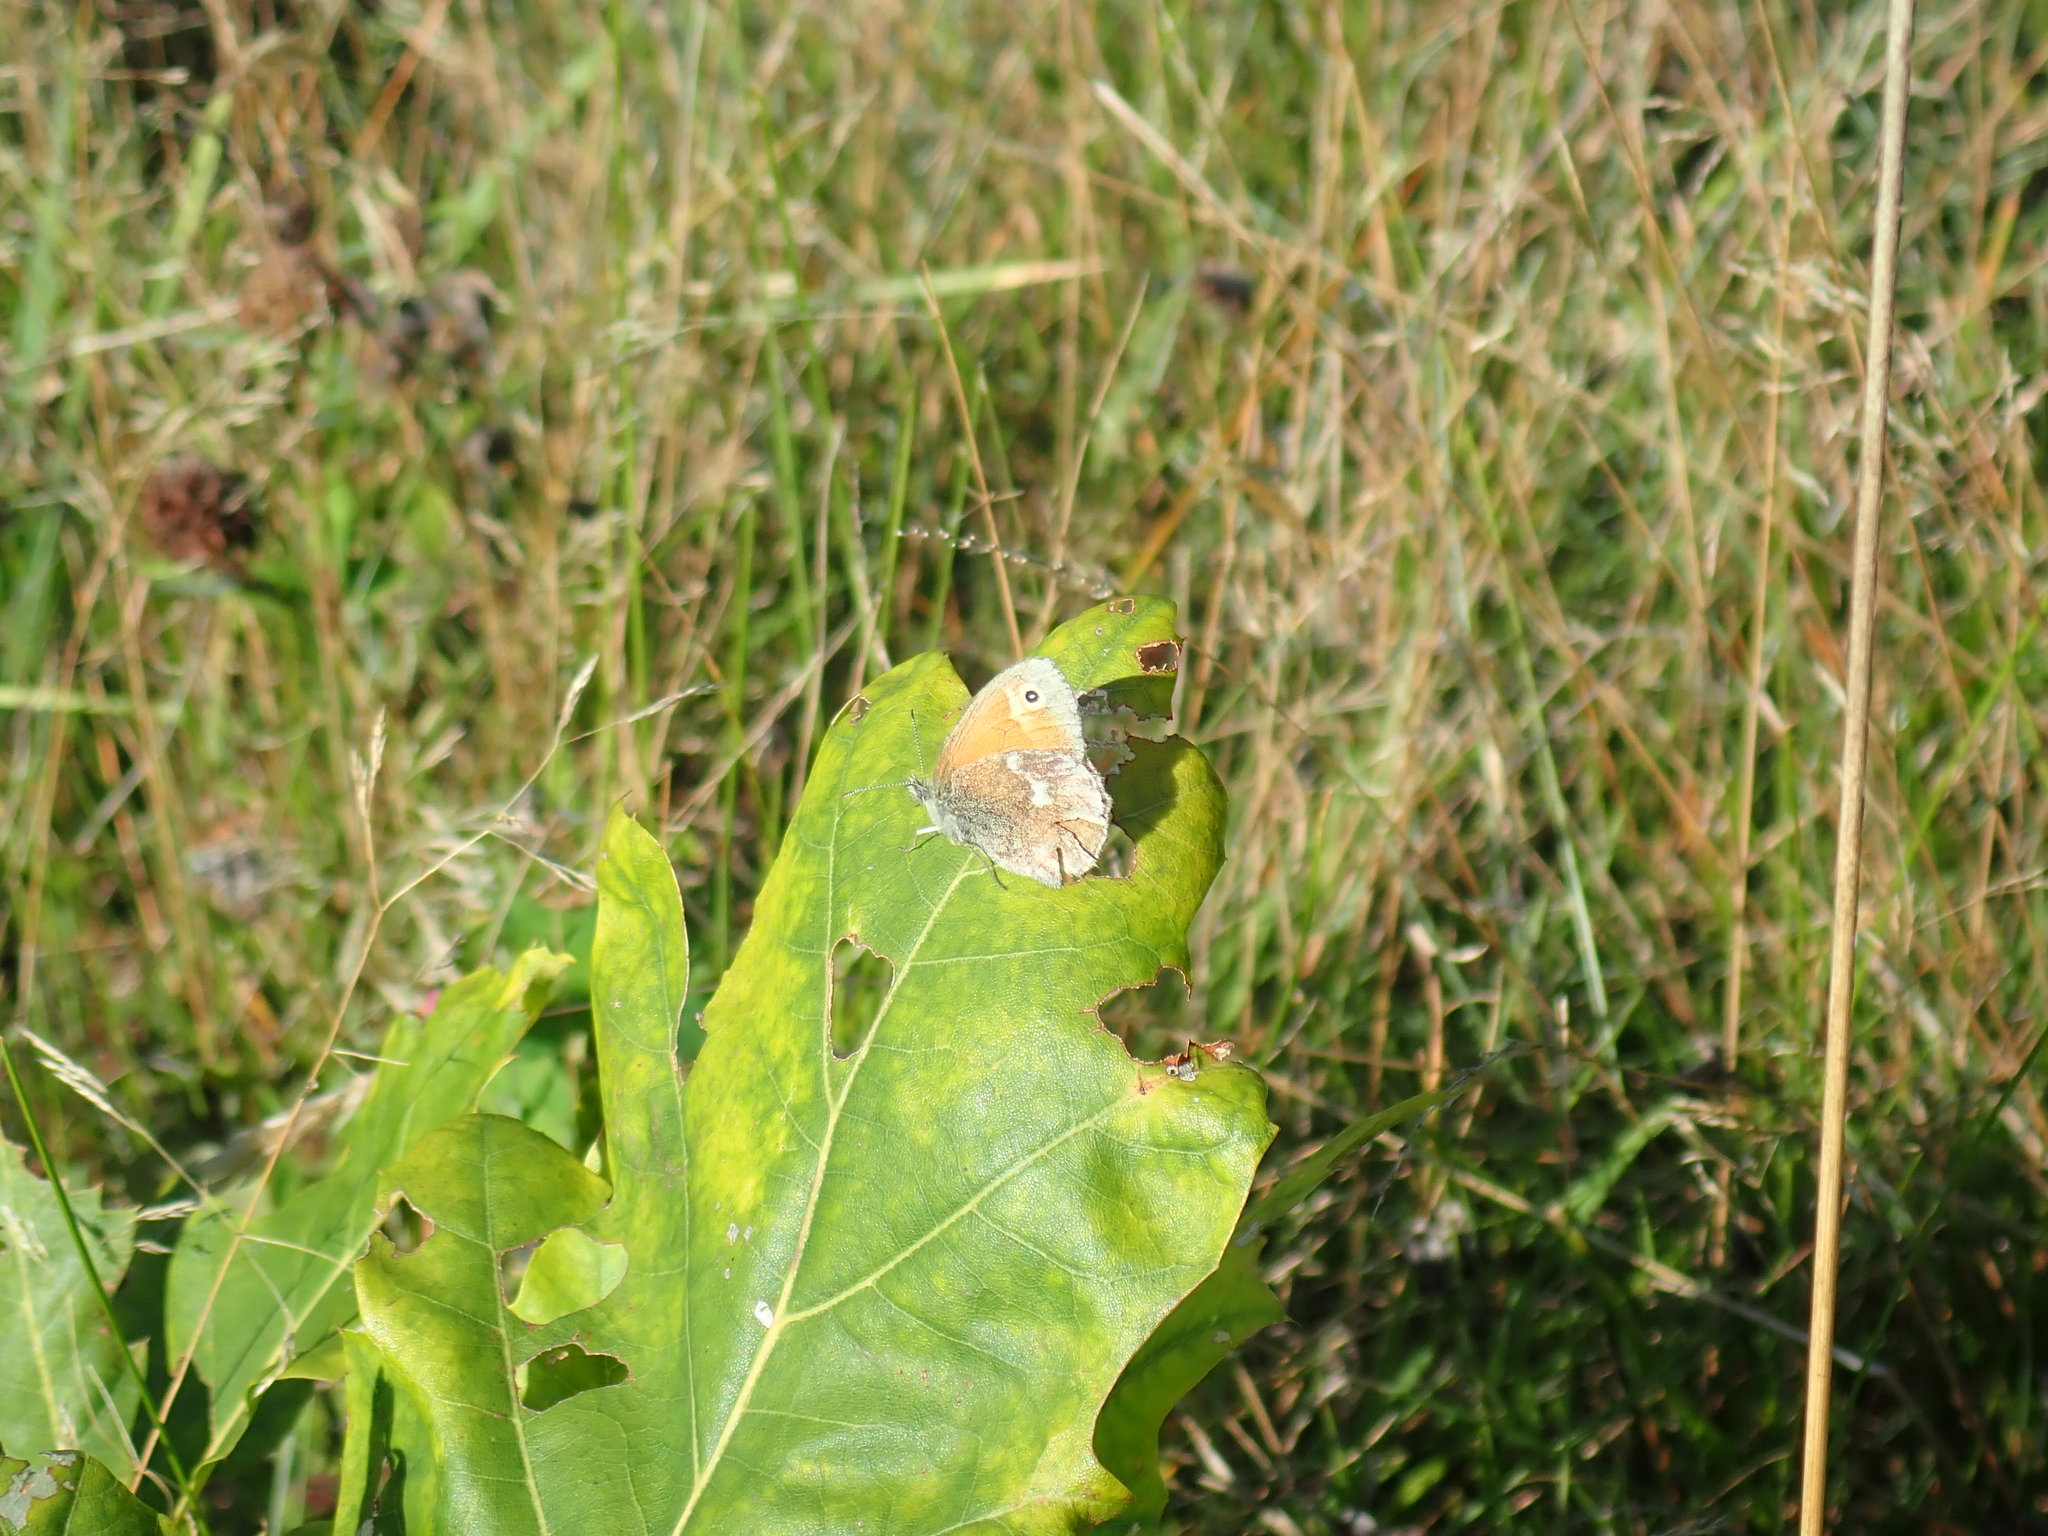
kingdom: Animalia
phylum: Arthropoda
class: Insecta
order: Lepidoptera
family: Nymphalidae
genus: Coenonympha
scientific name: Coenonympha california
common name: Common ringlet
